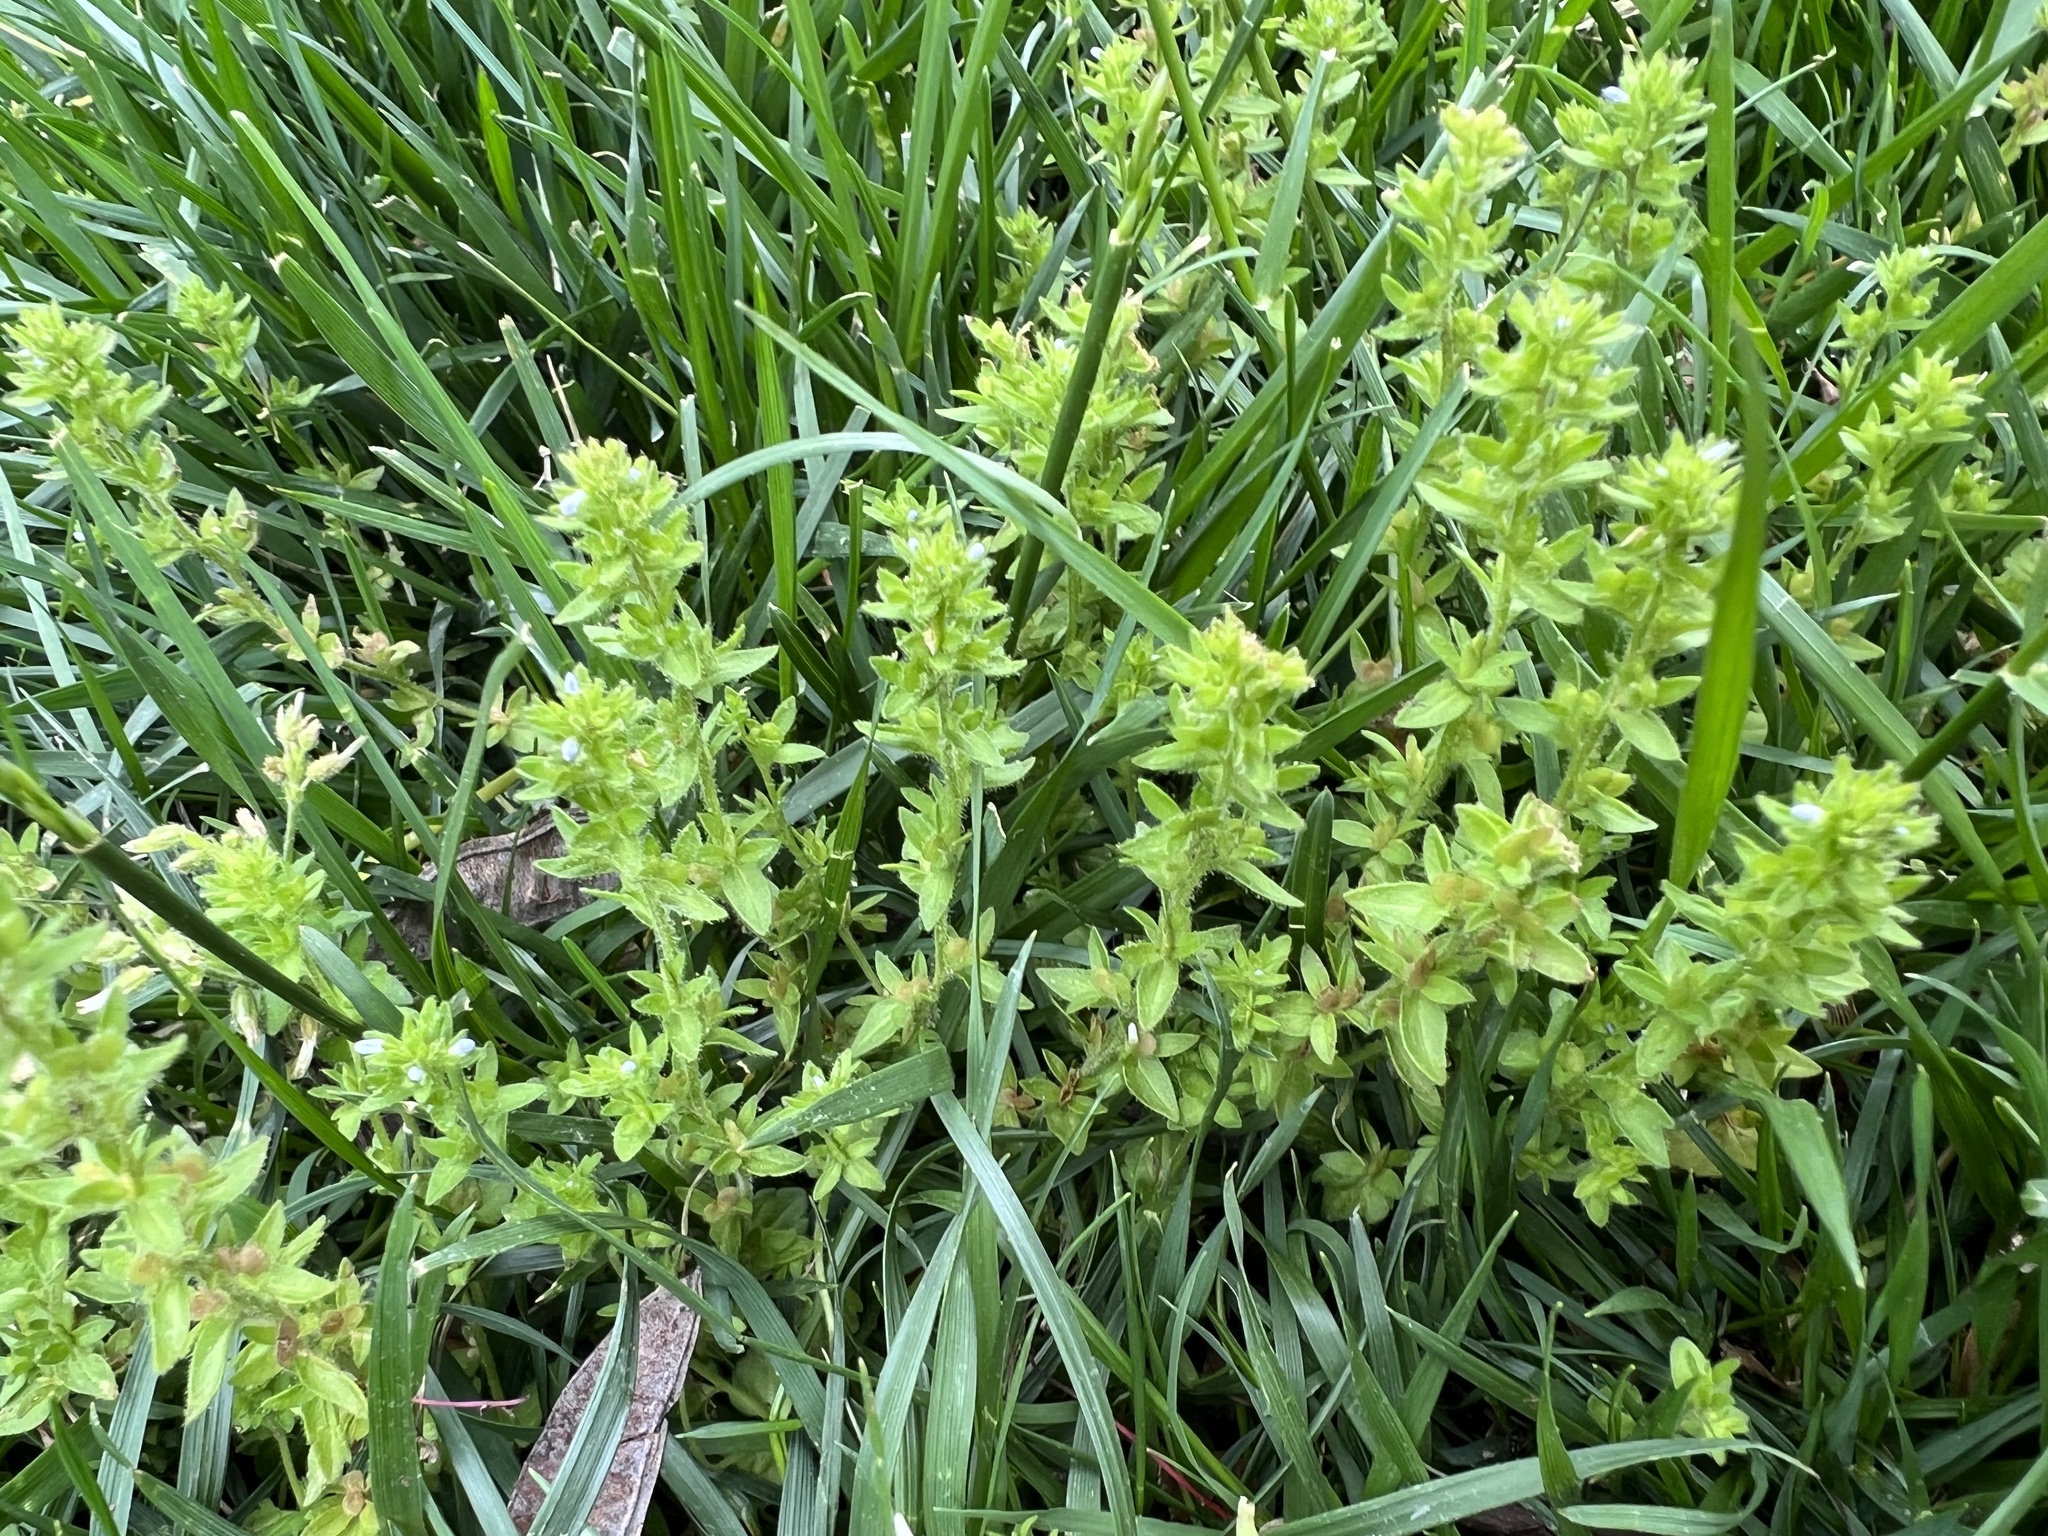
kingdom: Plantae
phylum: Tracheophyta
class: Magnoliopsida
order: Lamiales
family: Plantaginaceae
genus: Veronica
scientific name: Veronica arvensis
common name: Corn speedwell
